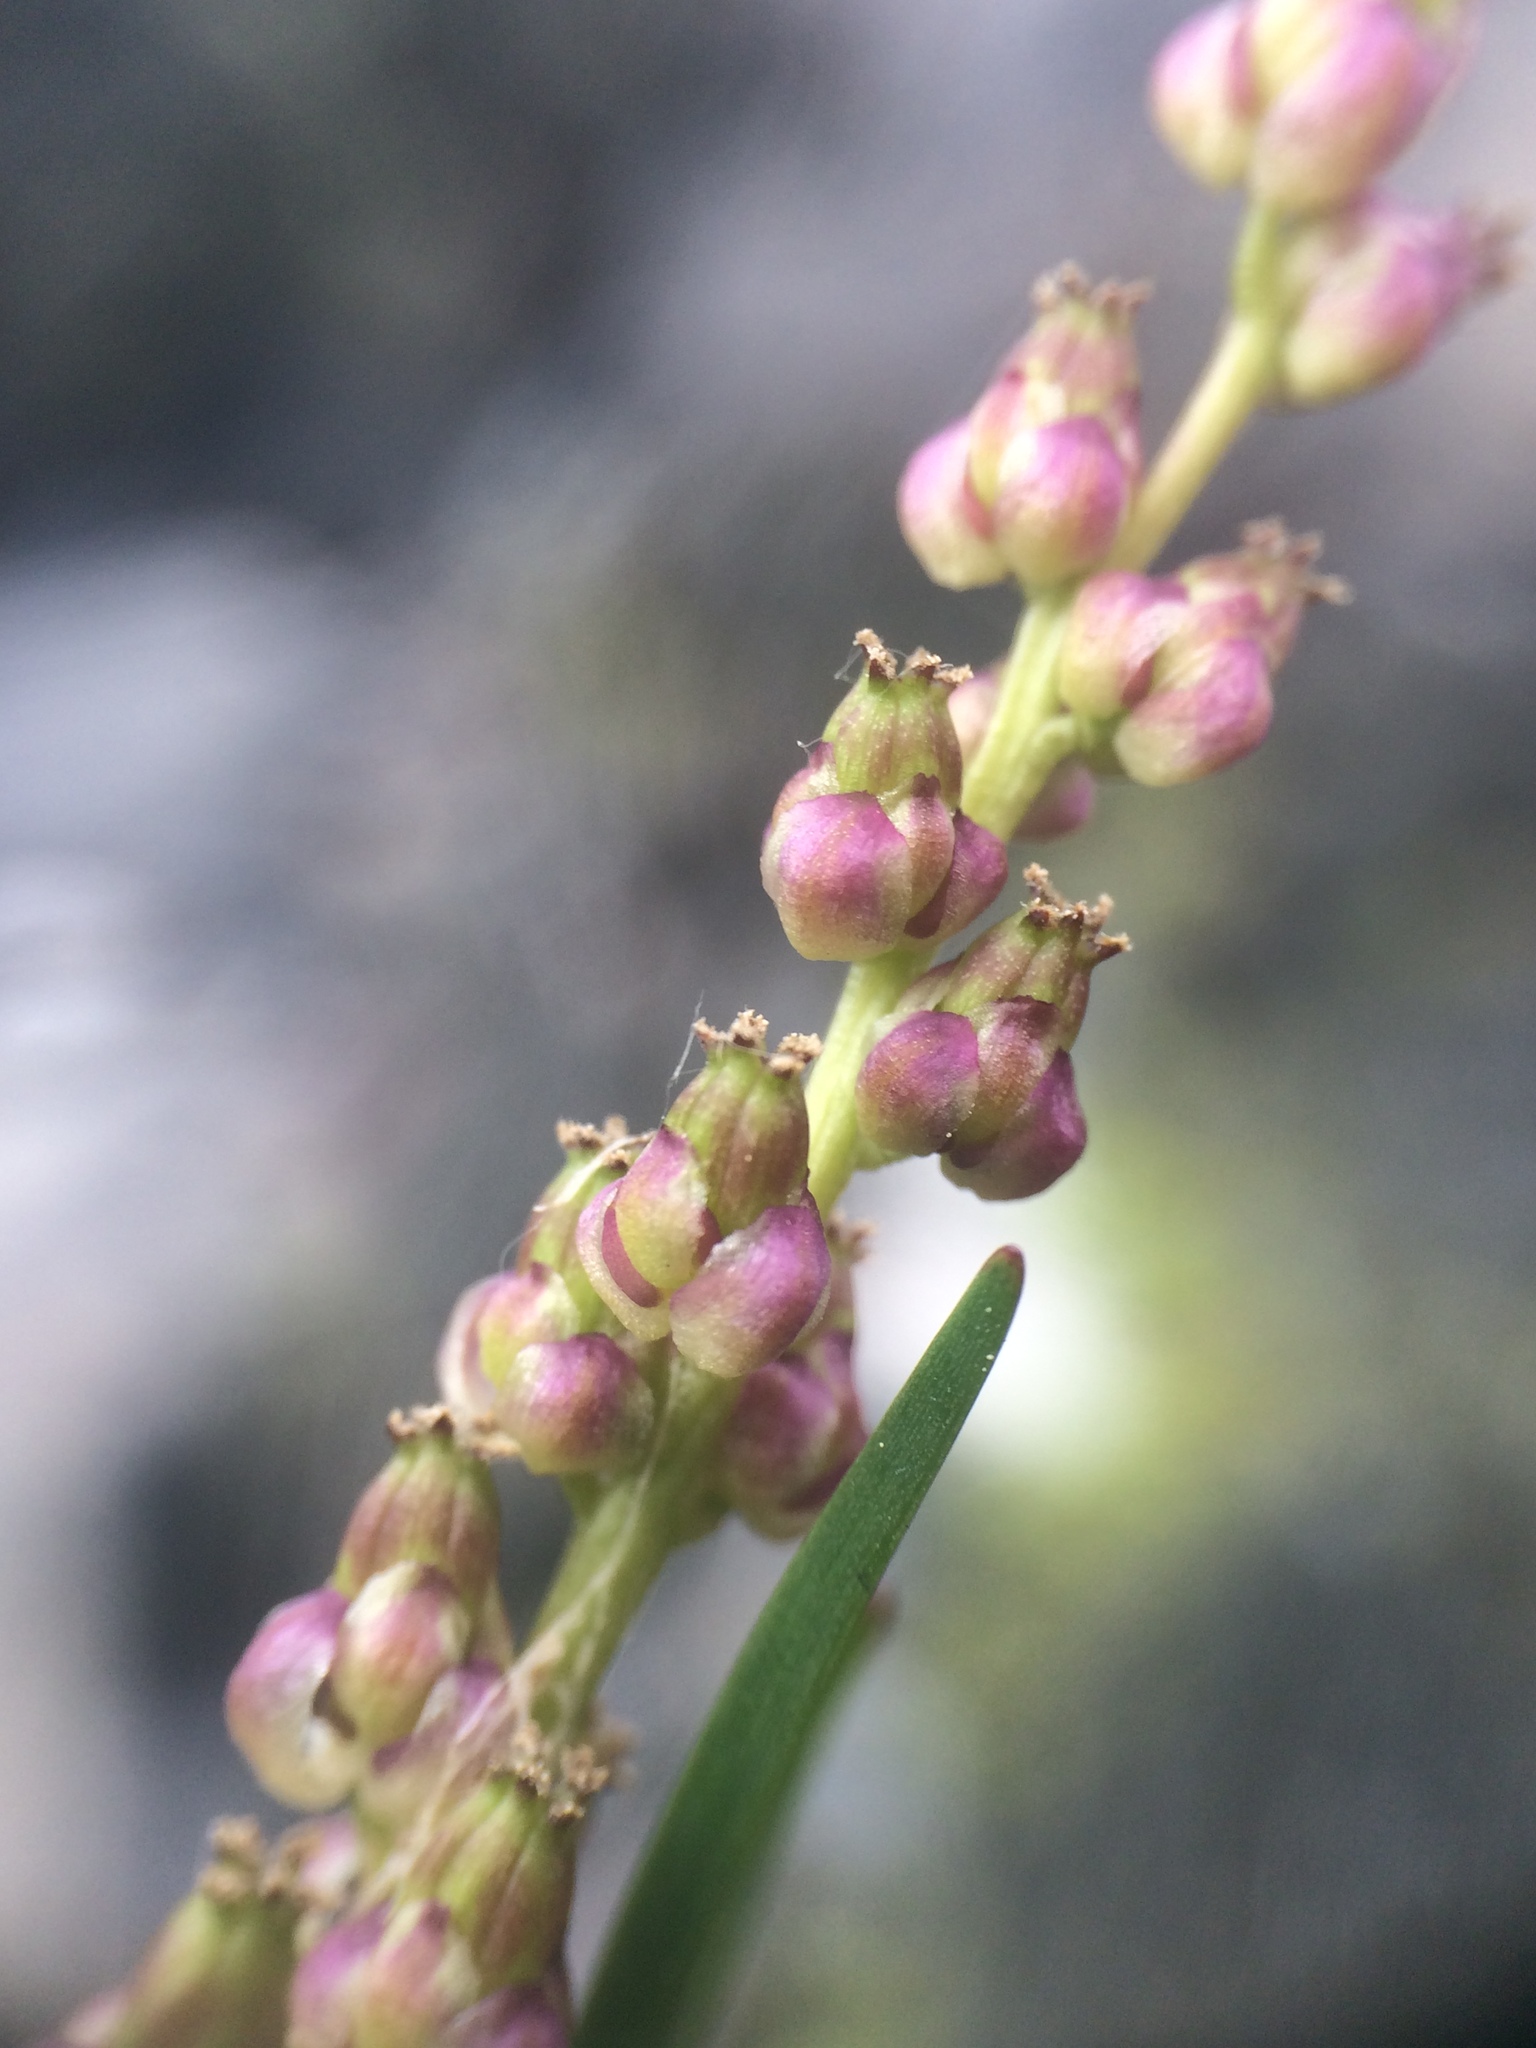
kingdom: Plantae
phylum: Tracheophyta
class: Liliopsida
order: Alismatales
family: Juncaginaceae
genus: Triglochin
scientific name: Triglochin maritima
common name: Sea arrowgrass
